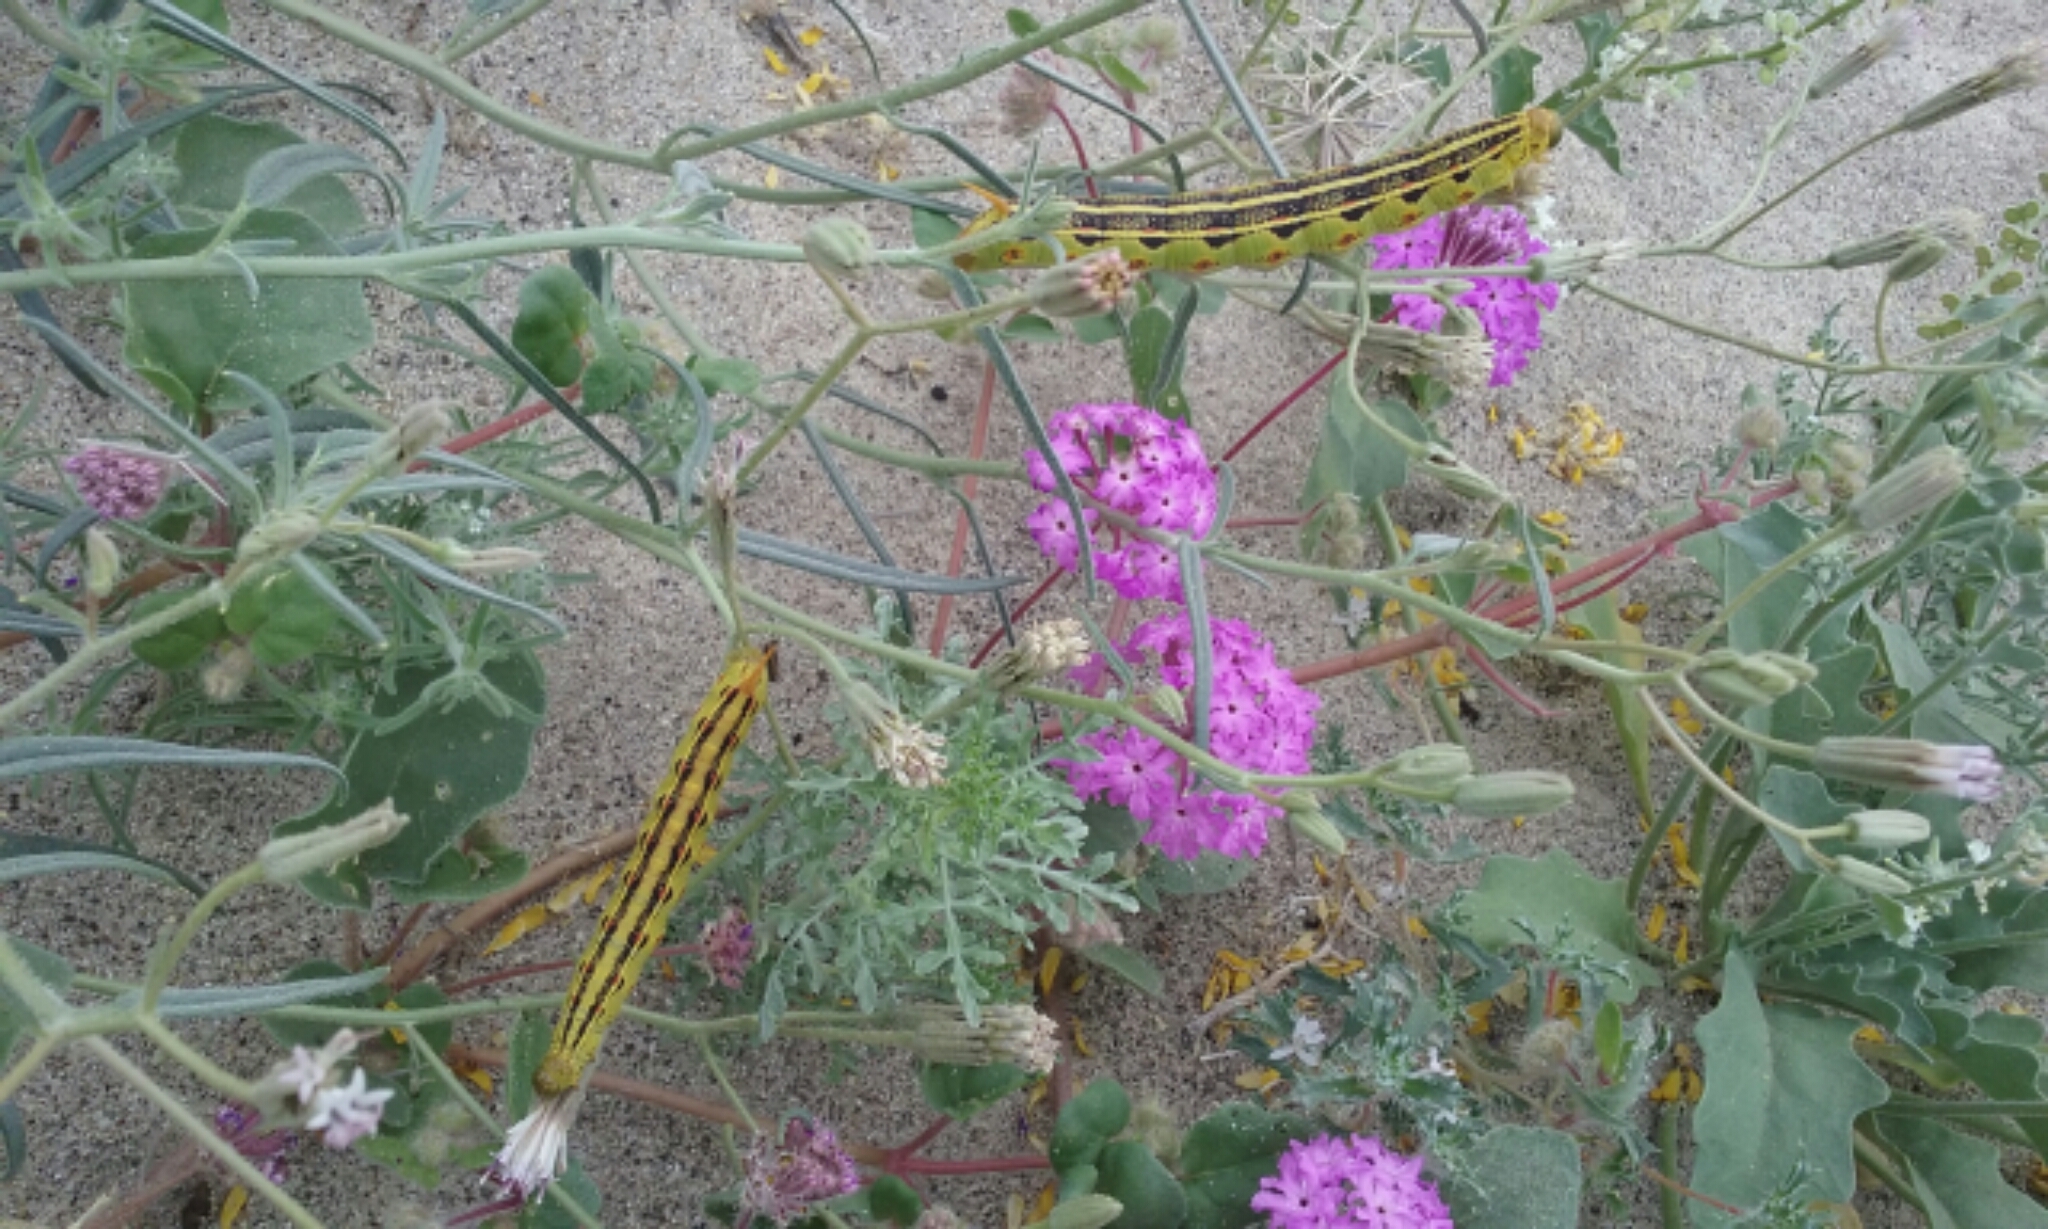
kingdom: Animalia
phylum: Arthropoda
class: Insecta
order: Lepidoptera
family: Sphingidae
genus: Hyles
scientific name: Hyles lineata
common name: White-lined sphinx
